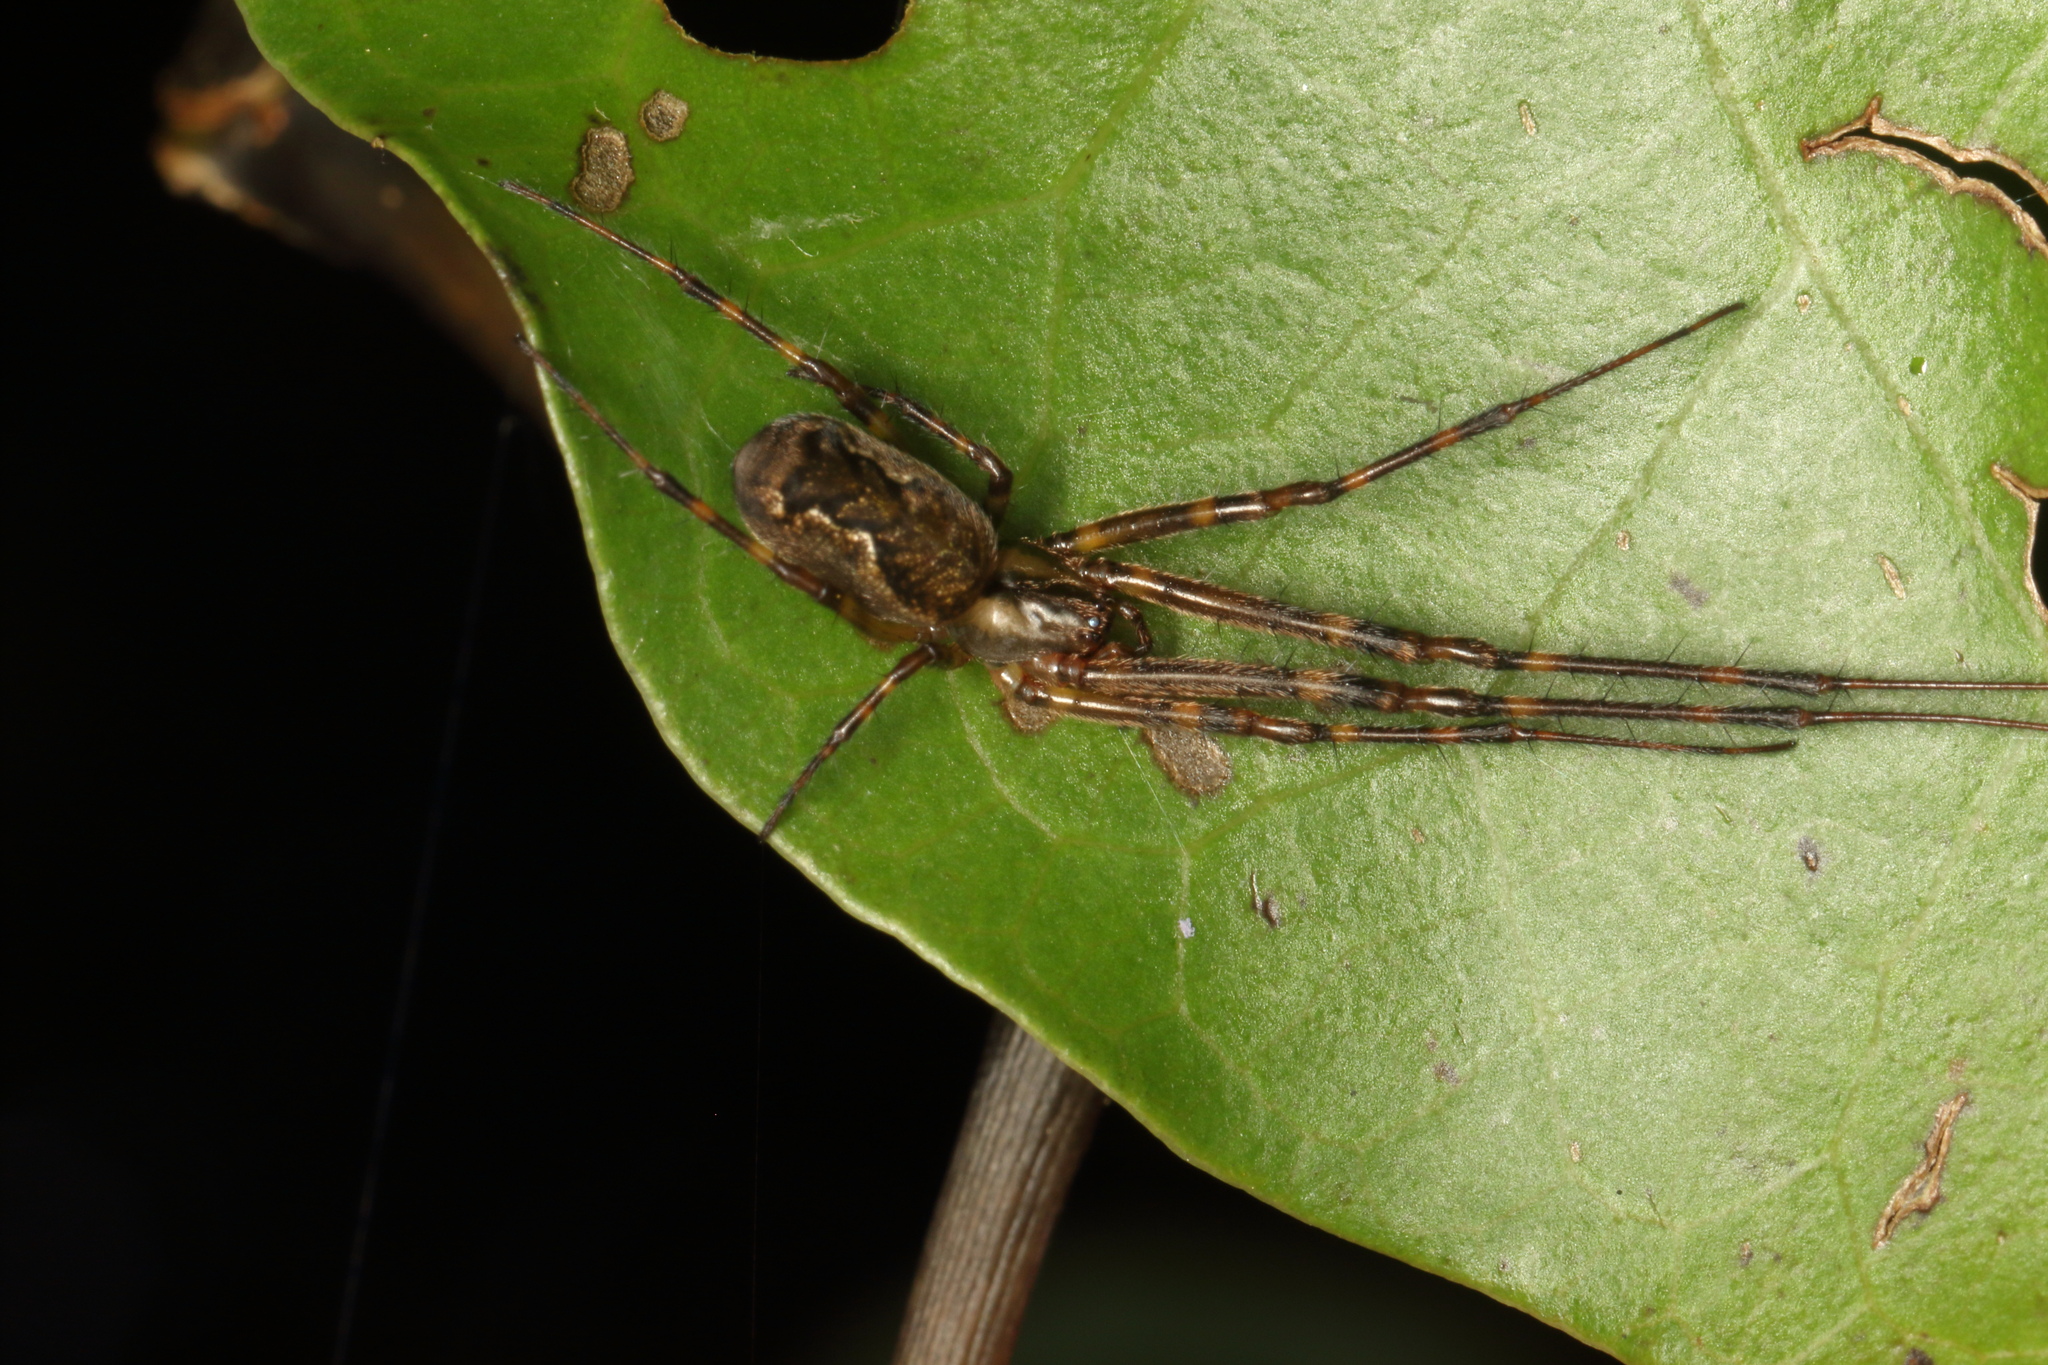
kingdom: Animalia
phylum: Arthropoda
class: Arachnida
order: Araneae
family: Tetragnathidae
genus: Nanometa
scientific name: Nanometa lagenifera
